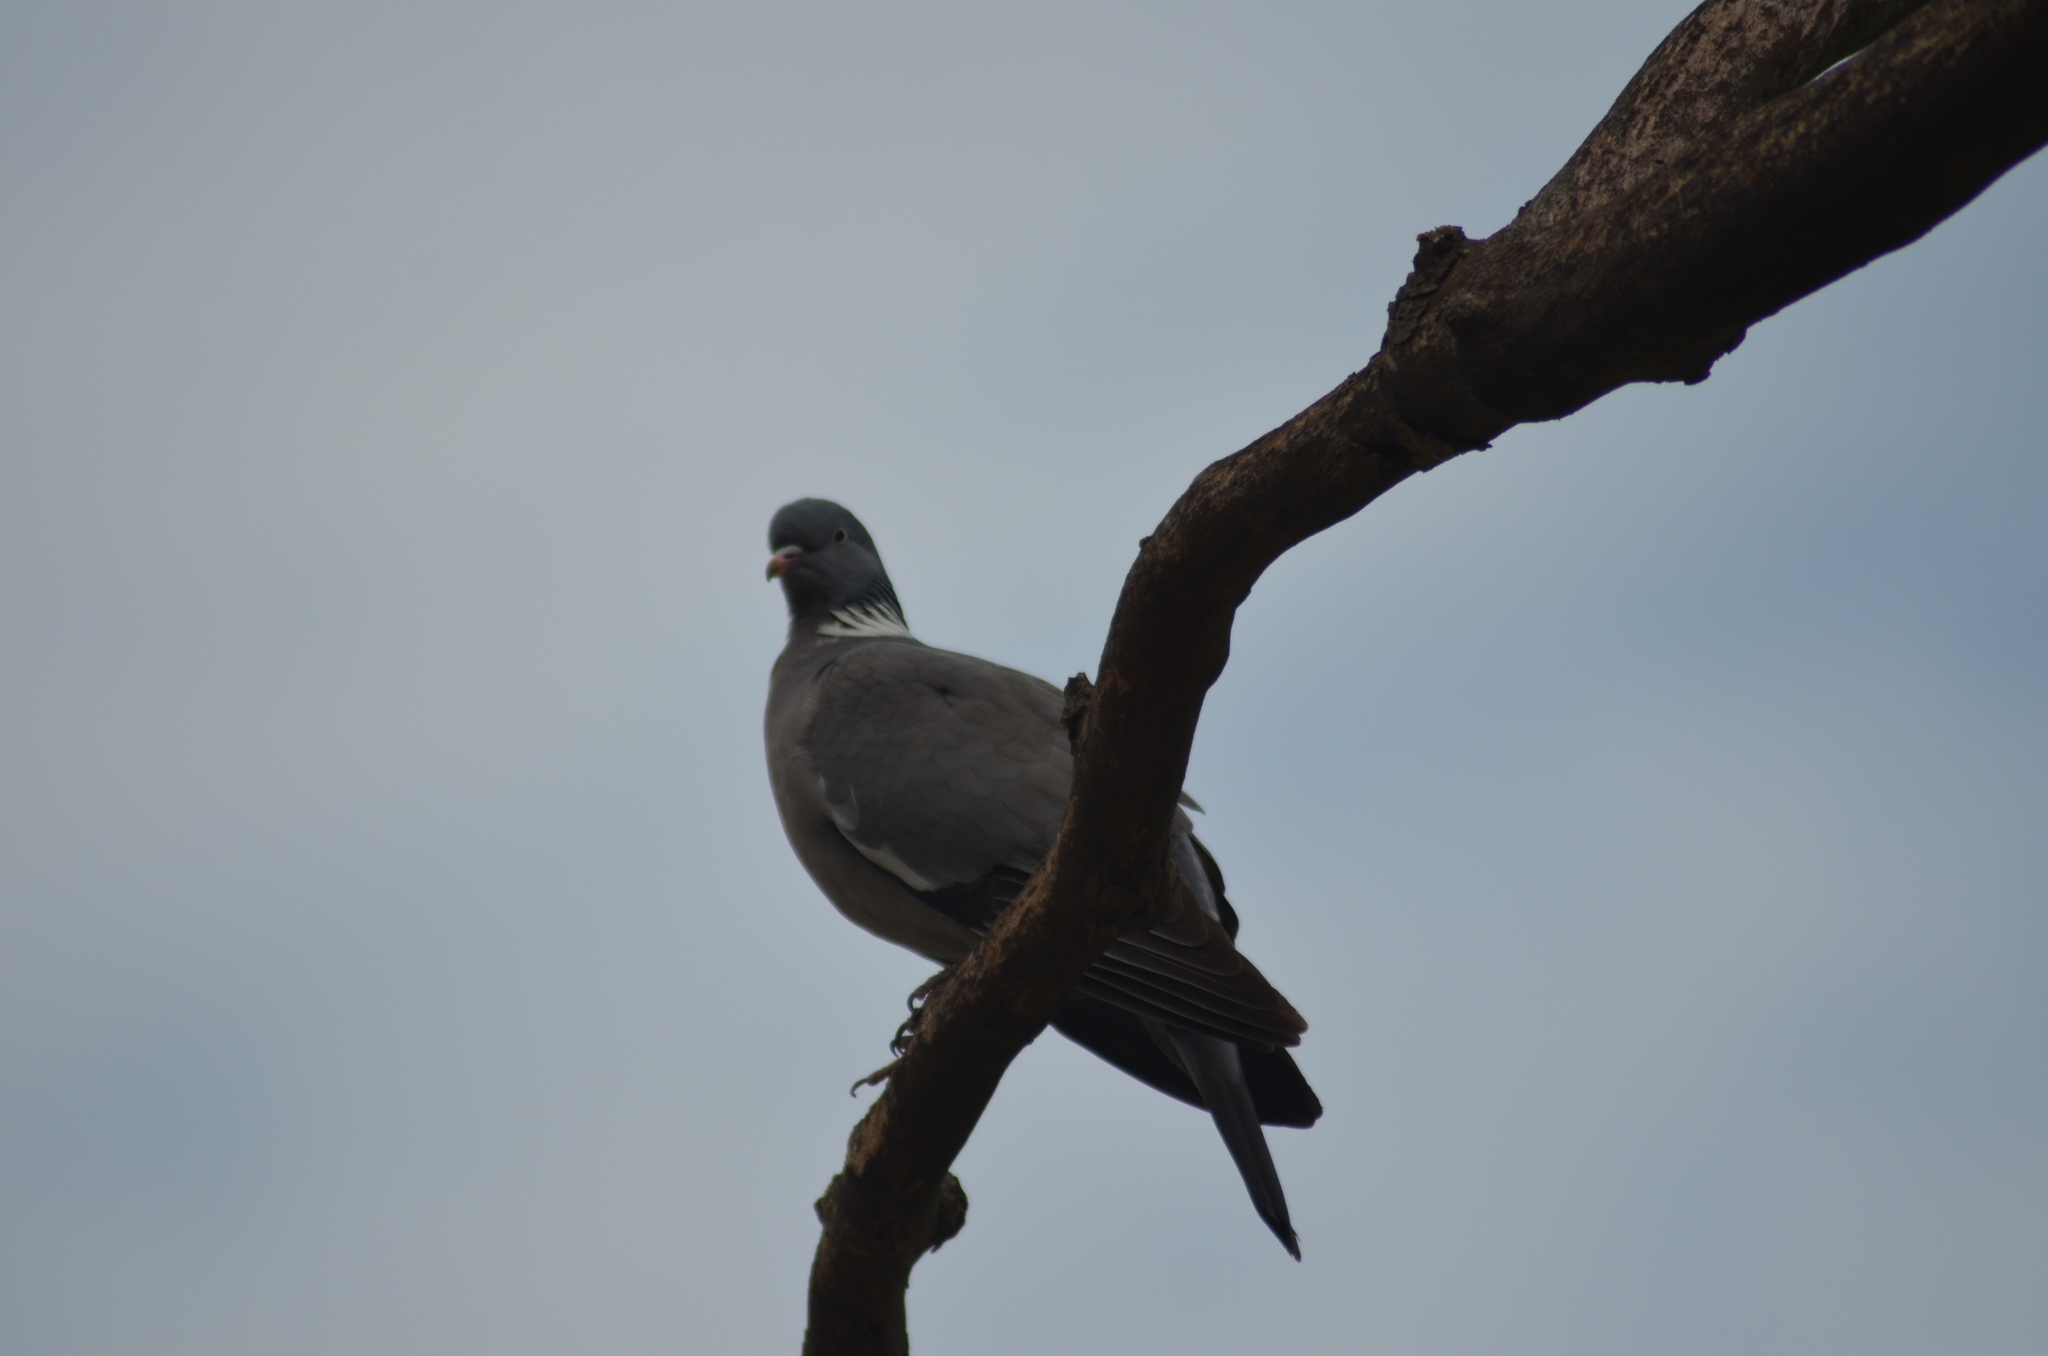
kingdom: Animalia
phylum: Chordata
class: Aves
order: Columbiformes
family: Columbidae
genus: Columba
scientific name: Columba palumbus
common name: Common wood pigeon
